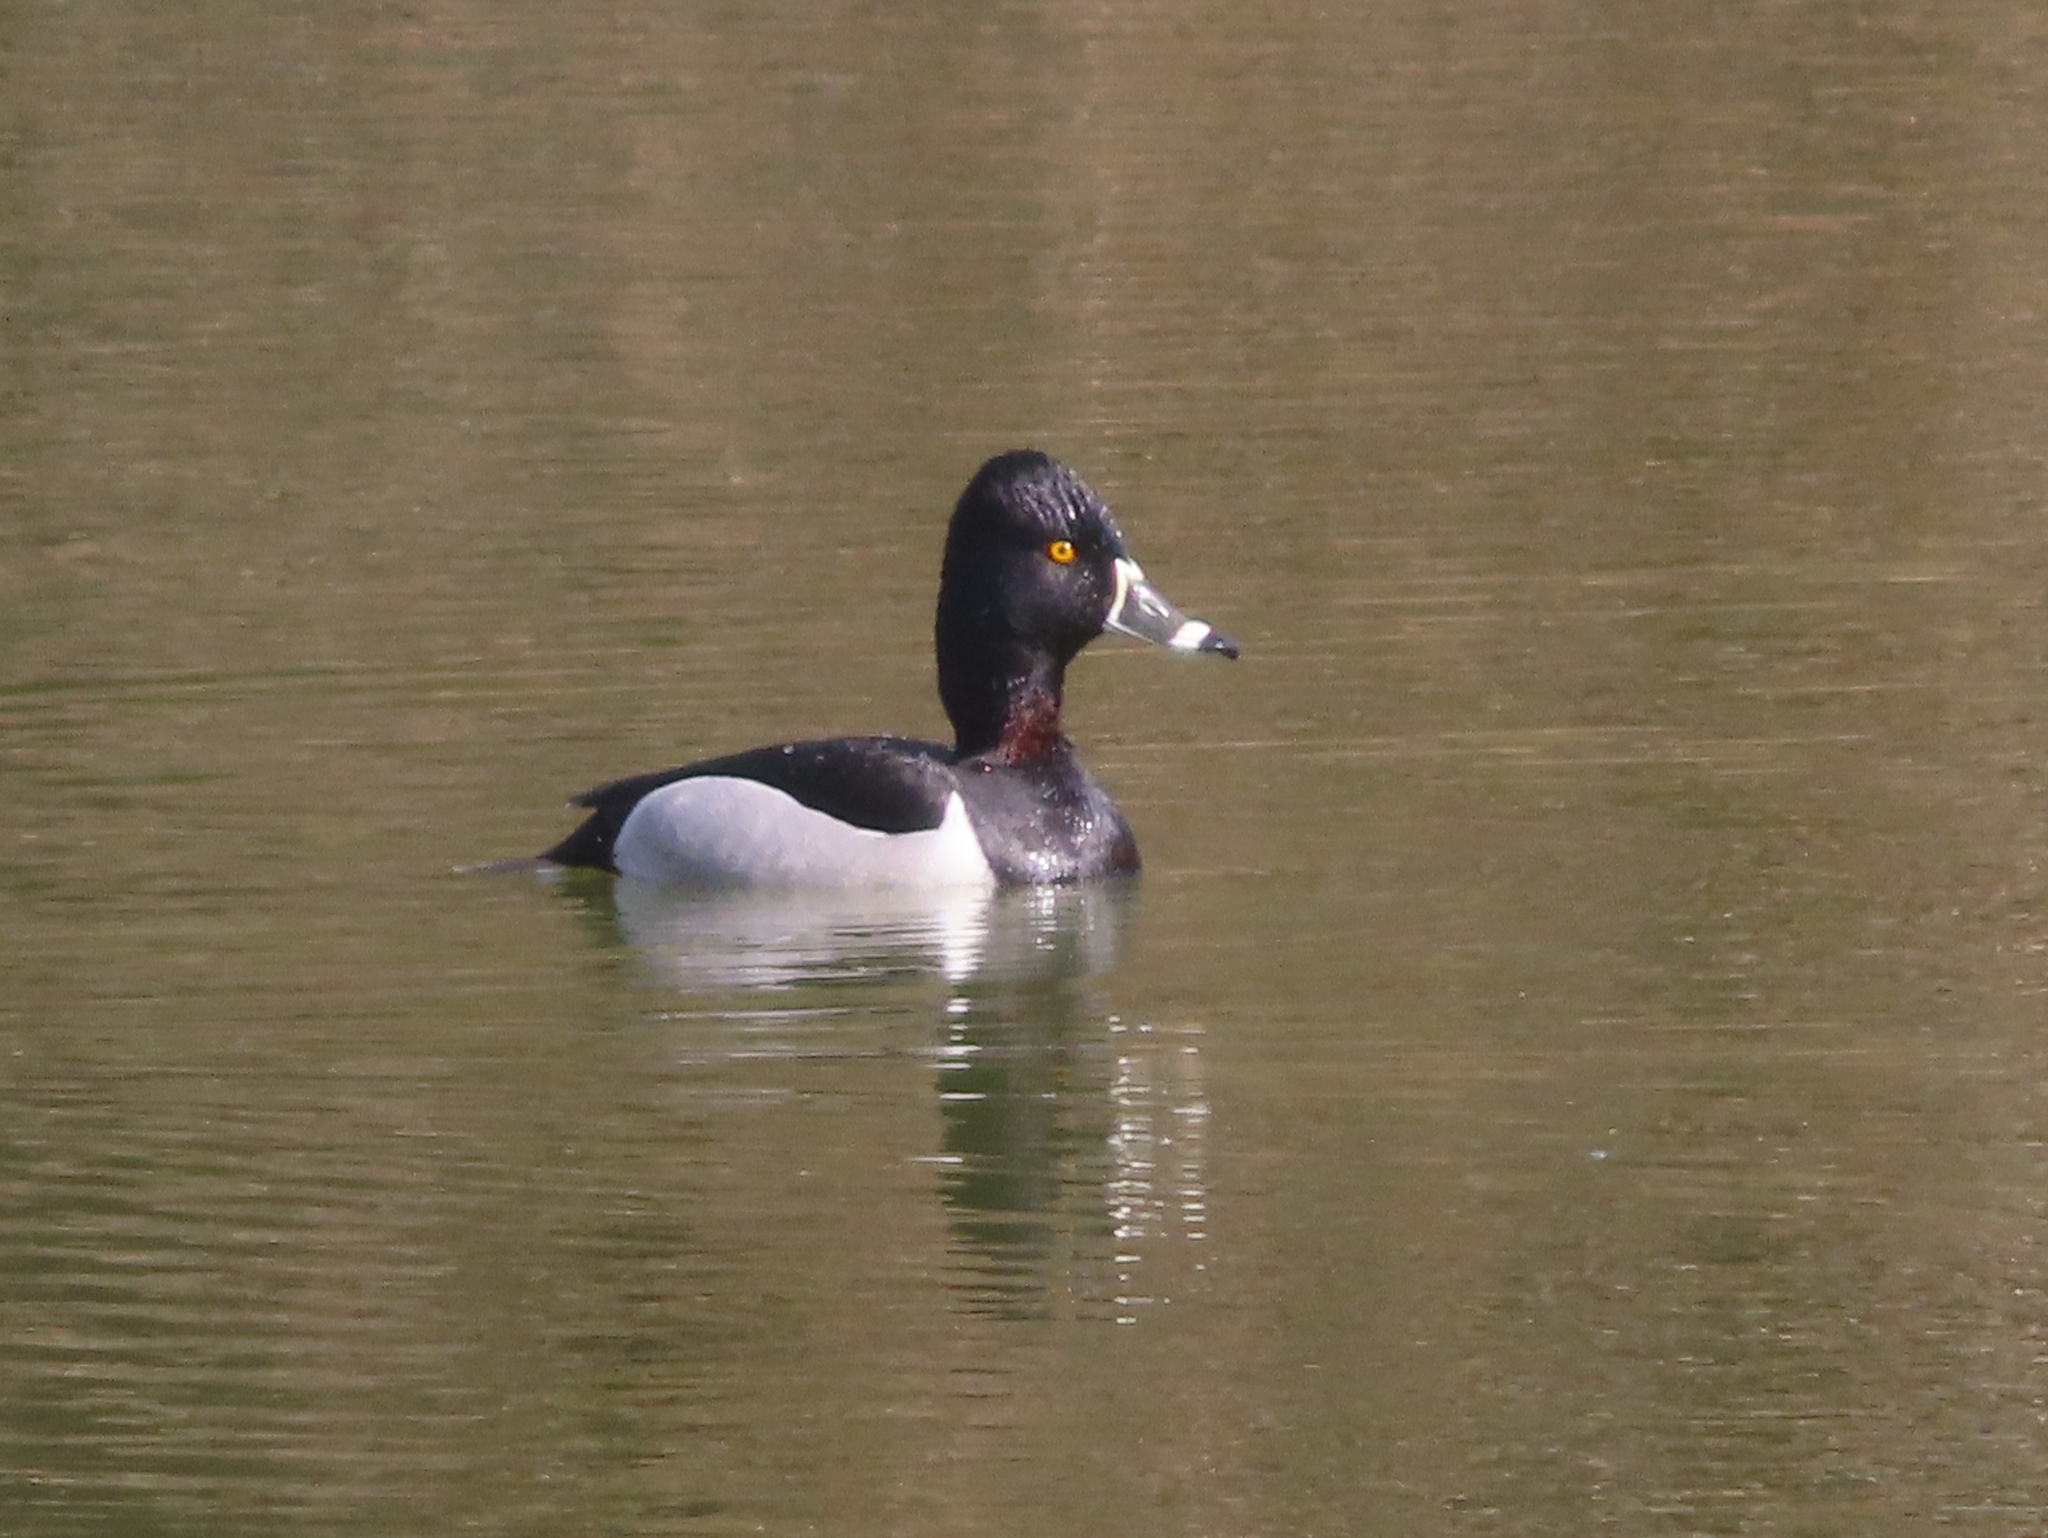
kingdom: Animalia
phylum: Chordata
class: Aves
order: Anseriformes
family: Anatidae
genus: Aythya
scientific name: Aythya collaris
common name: Ring-necked duck
